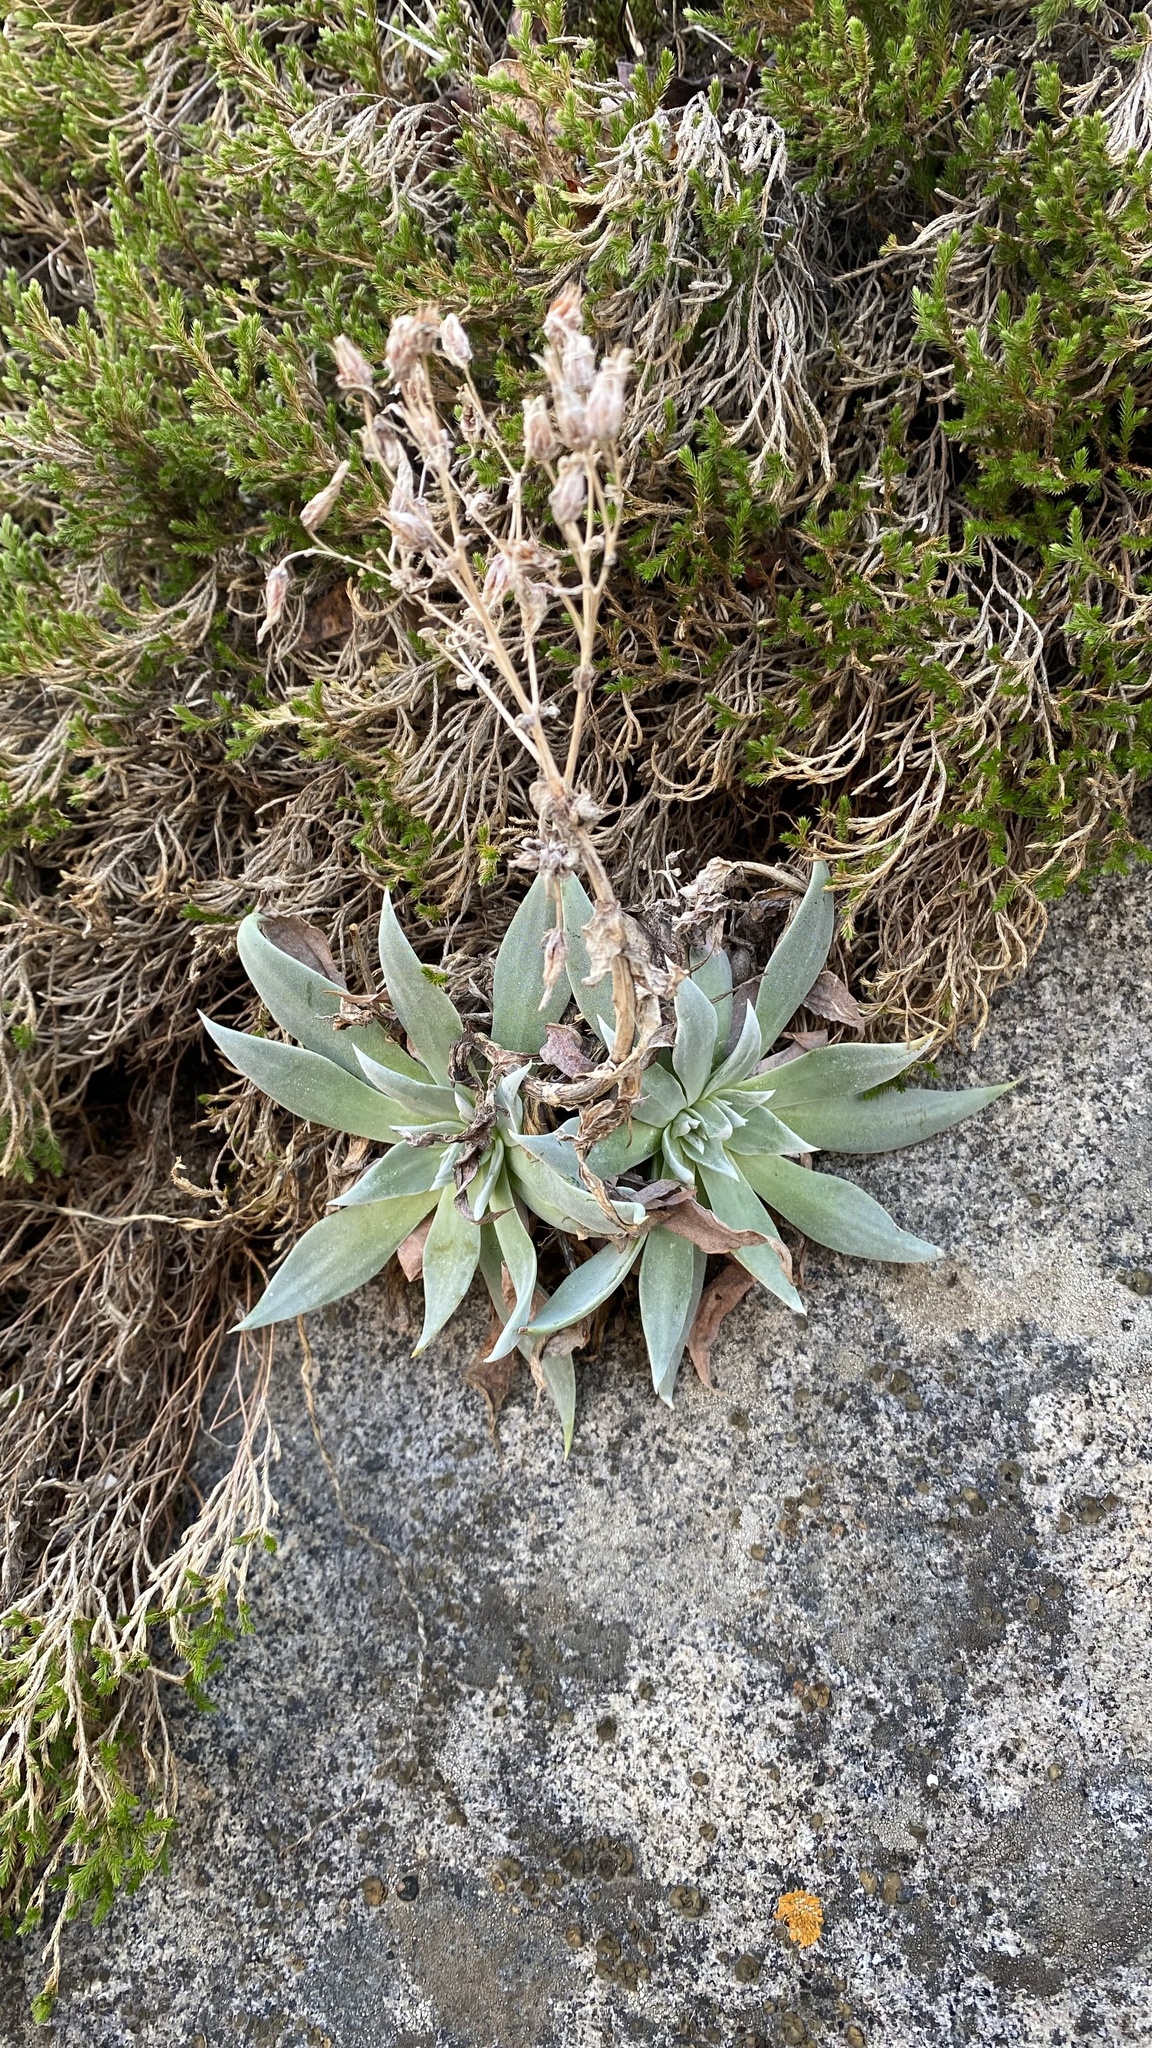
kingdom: Plantae
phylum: Tracheophyta
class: Magnoliopsida
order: Saxifragales
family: Crassulaceae
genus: Dudleya
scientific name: Dudleya cymosa
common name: Canyon dudleya
